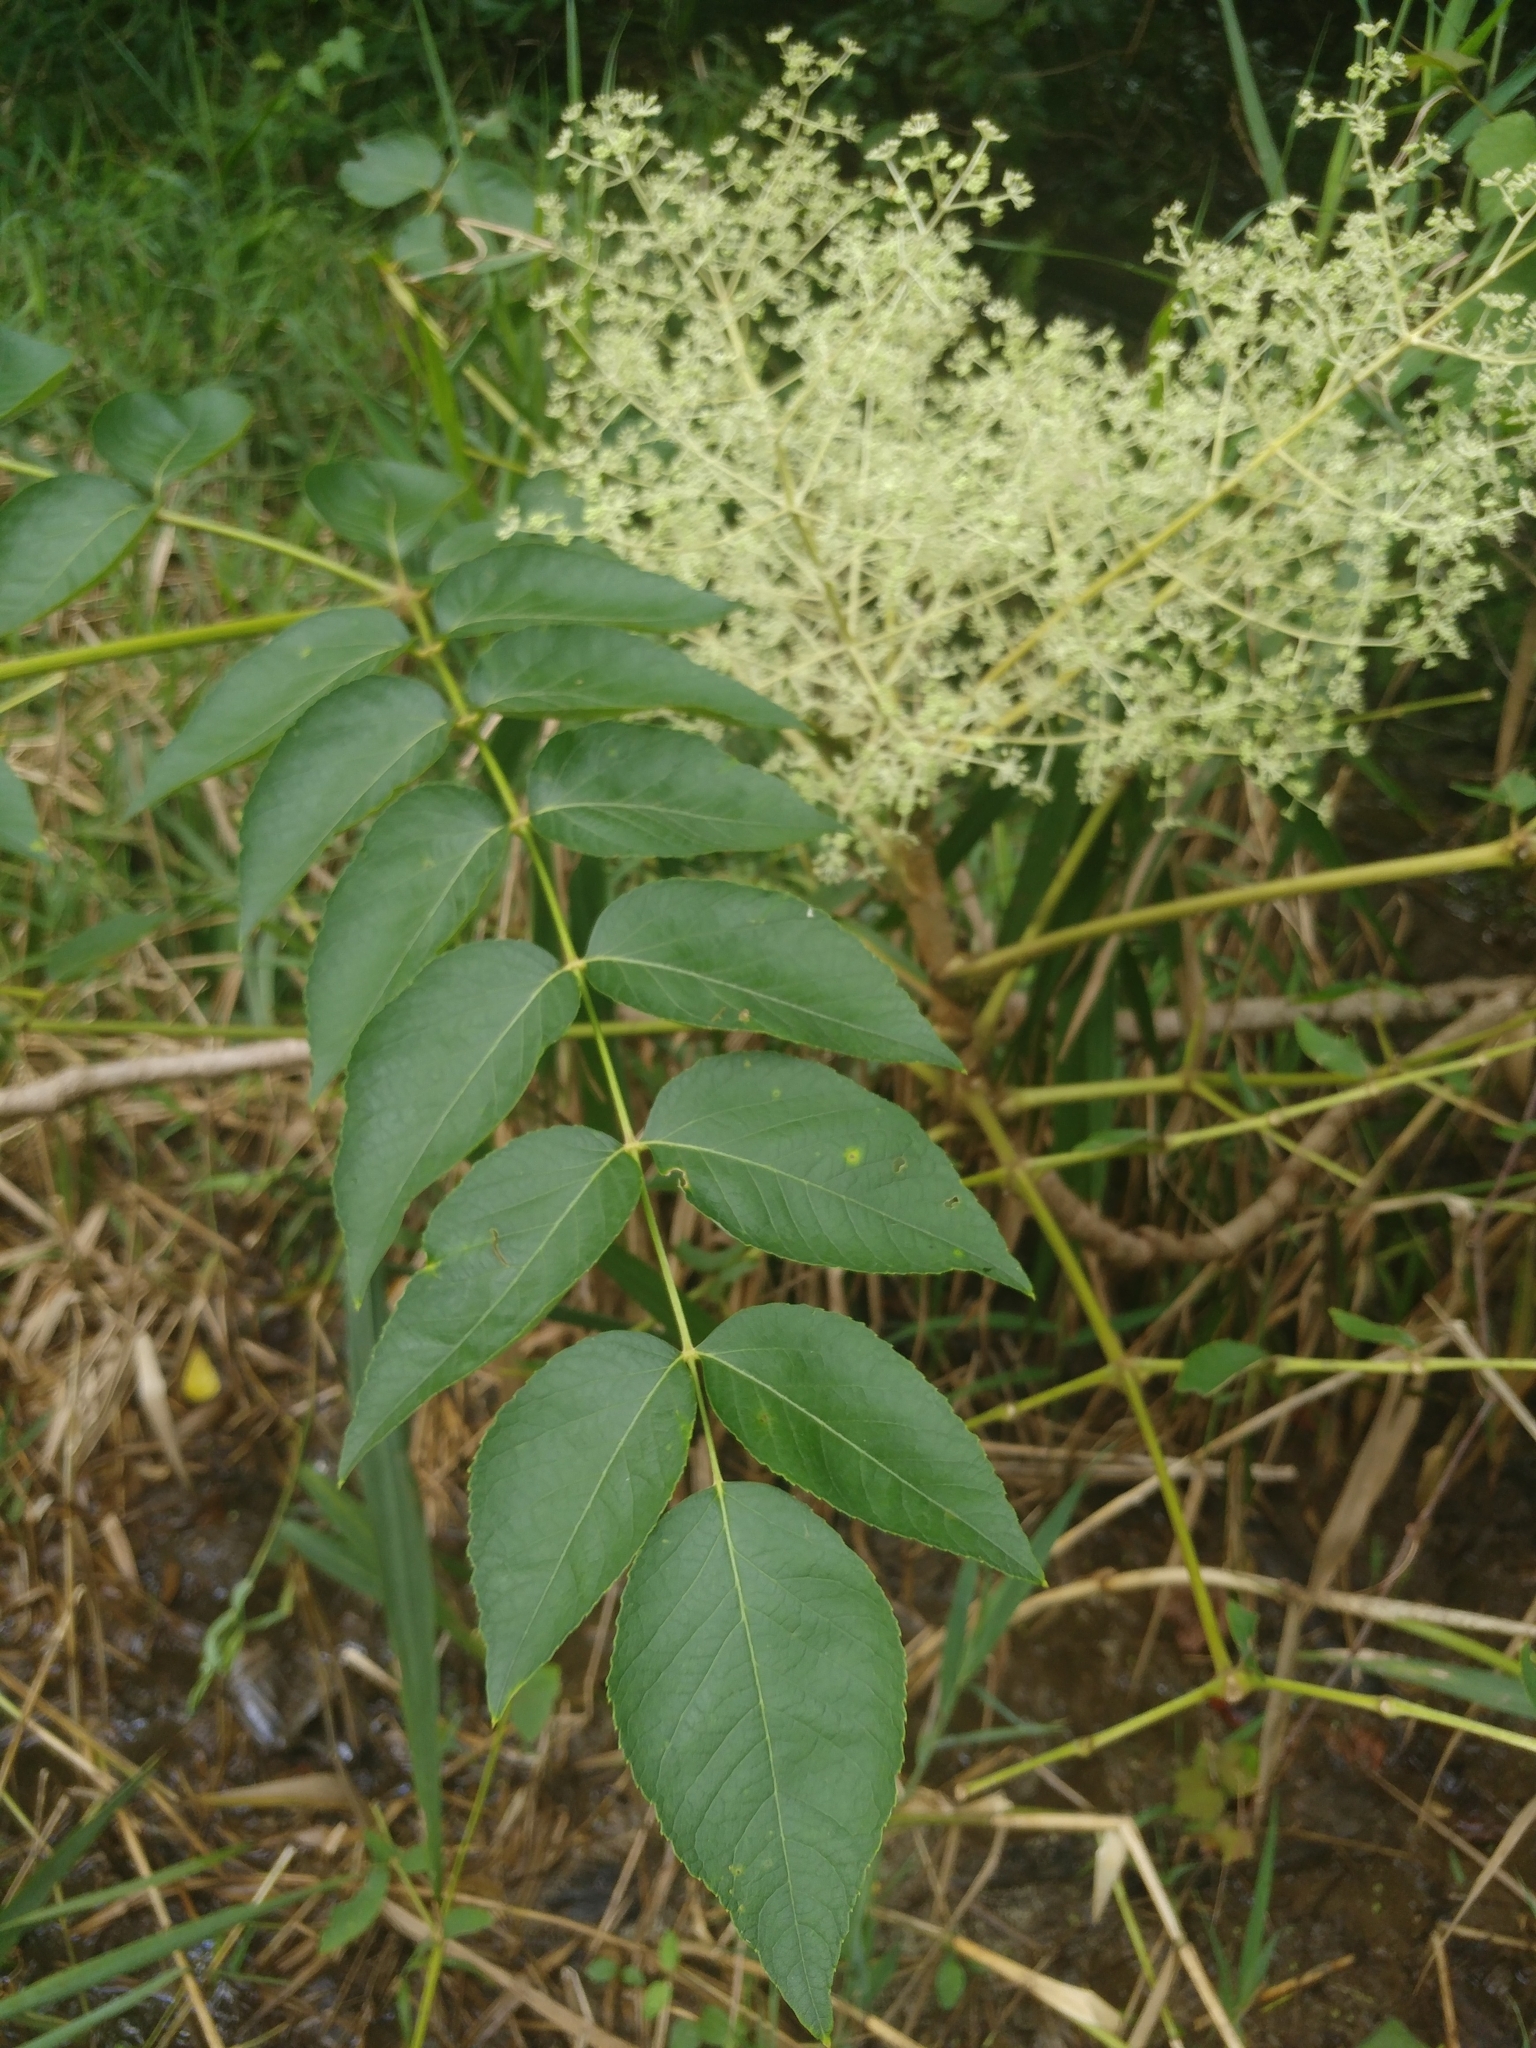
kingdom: Plantae
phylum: Tracheophyta
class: Magnoliopsida
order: Apiales
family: Araliaceae
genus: Aralia
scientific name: Aralia elata
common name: Japanese angelica-tree
